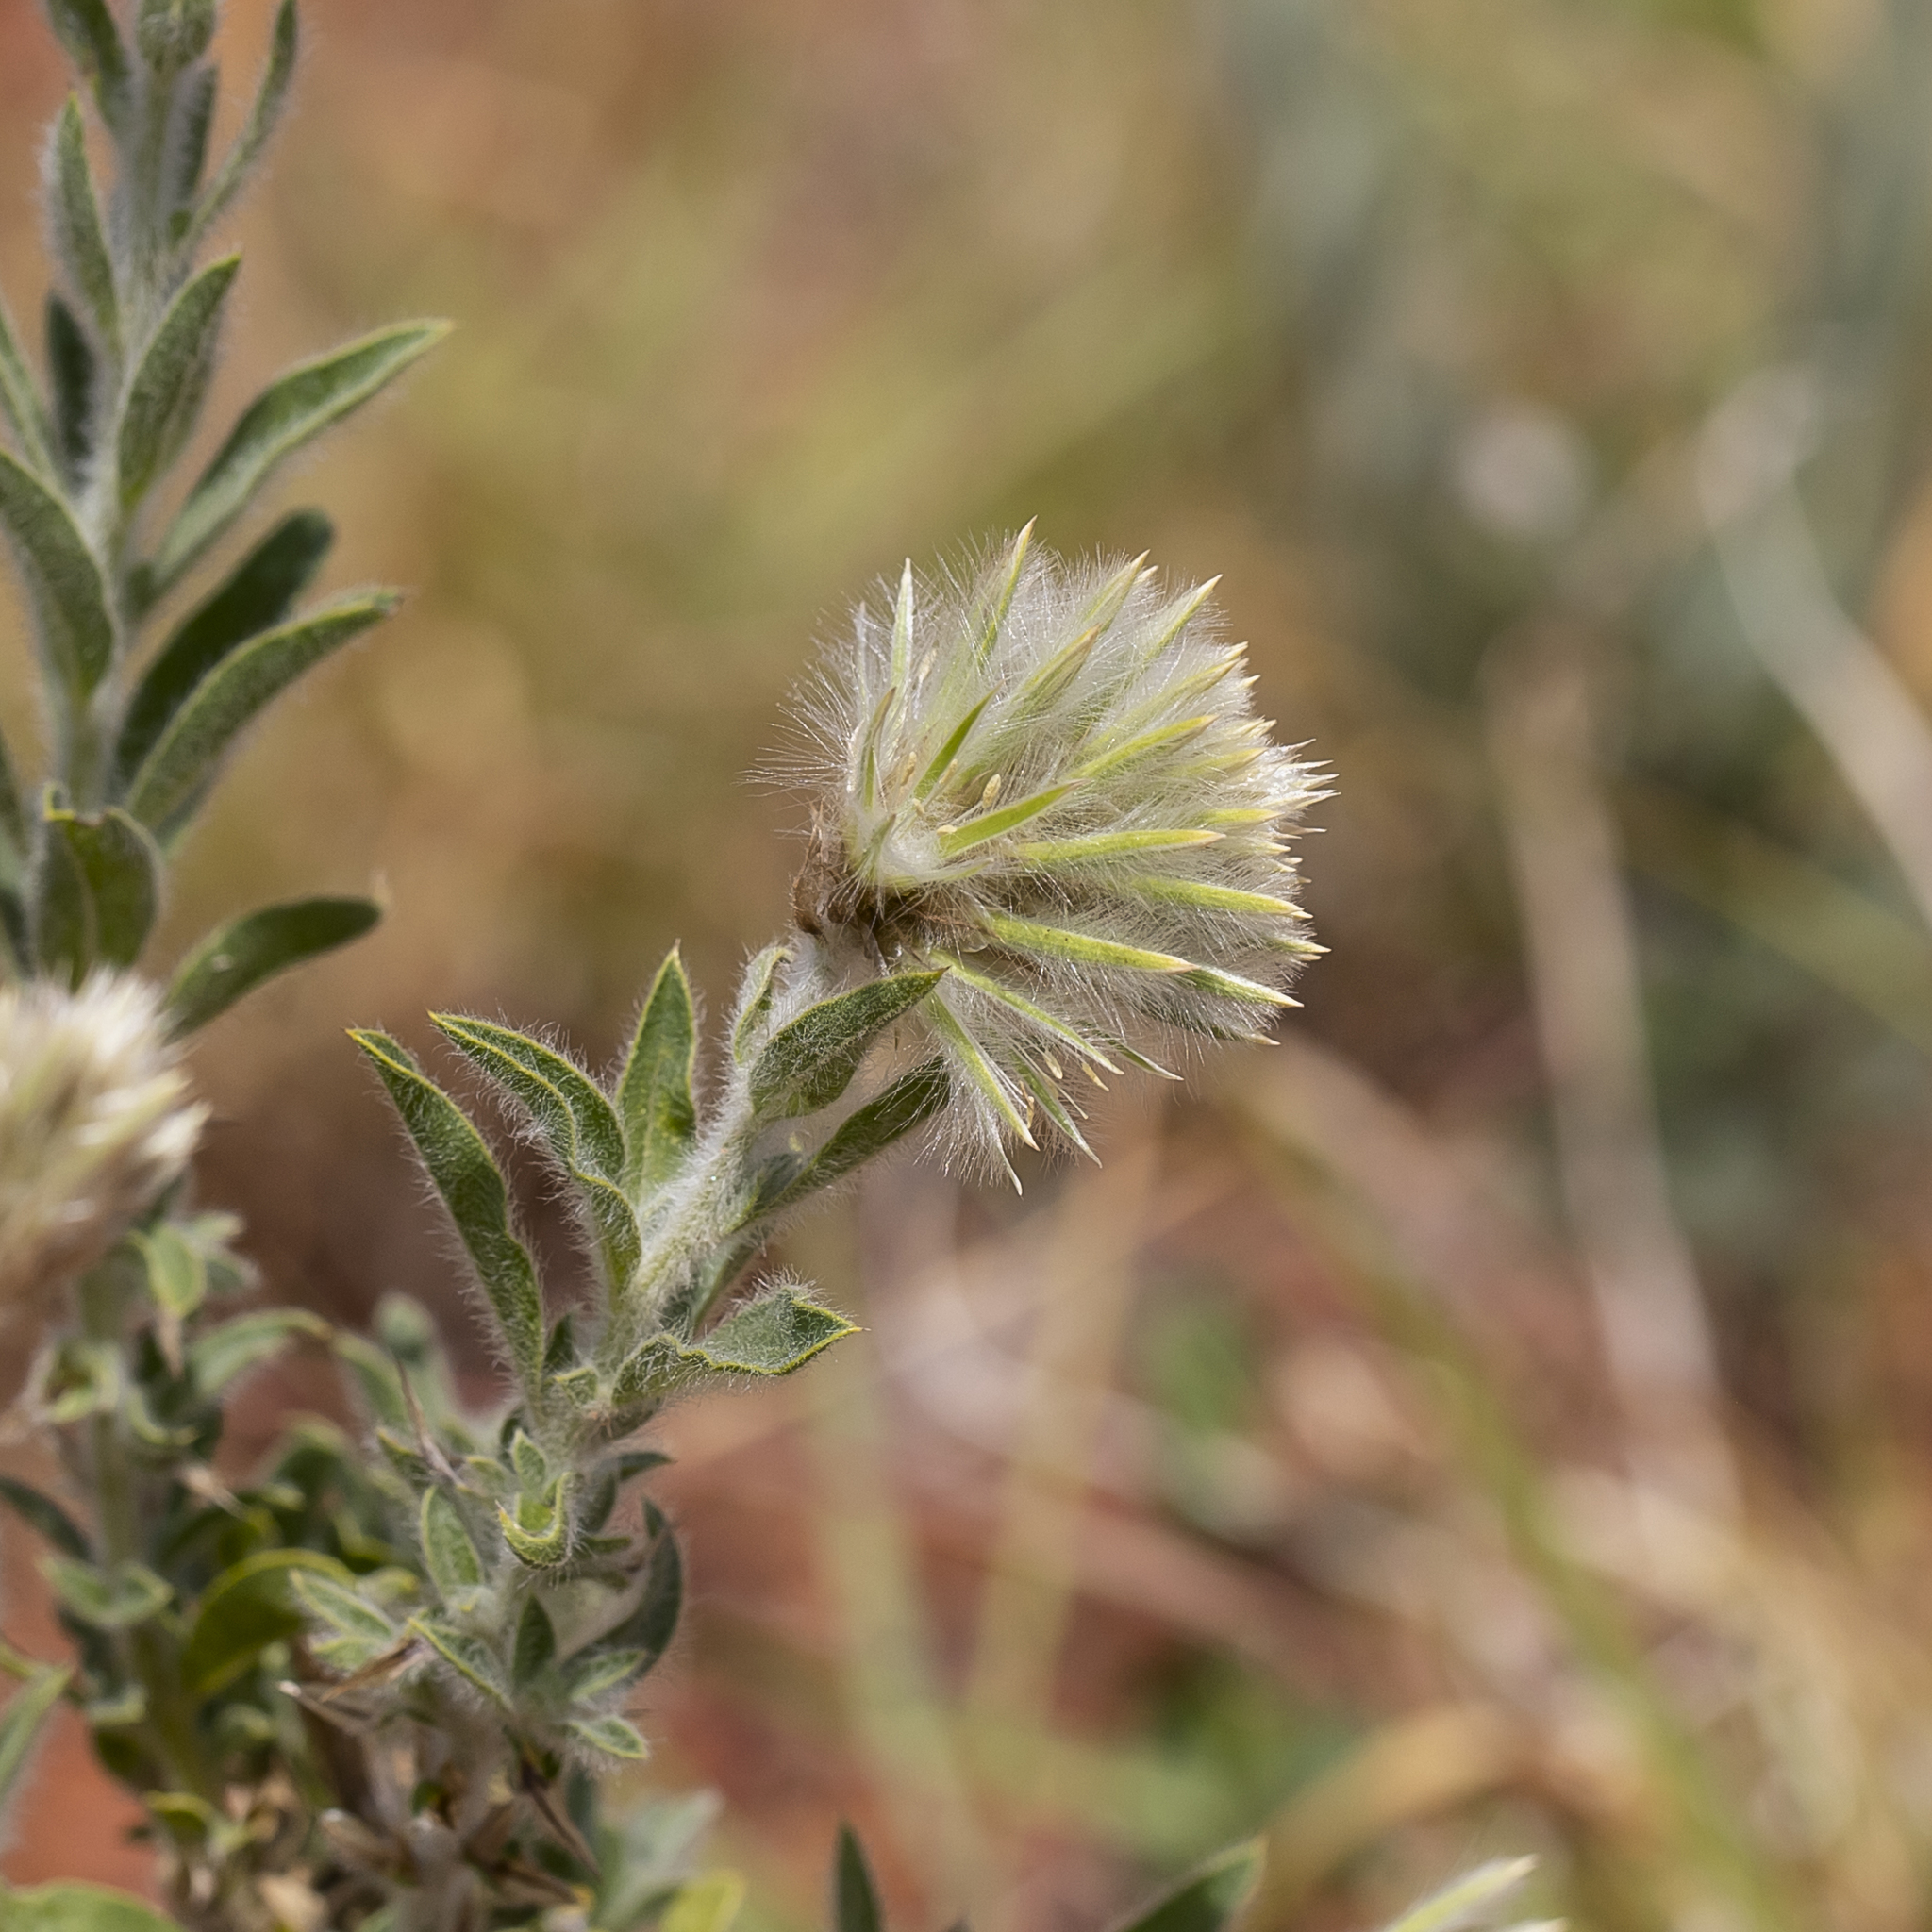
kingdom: Plantae
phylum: Tracheophyta
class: Magnoliopsida
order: Caryophyllales
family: Amaranthaceae
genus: Ptilotus
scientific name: Ptilotus clementii
